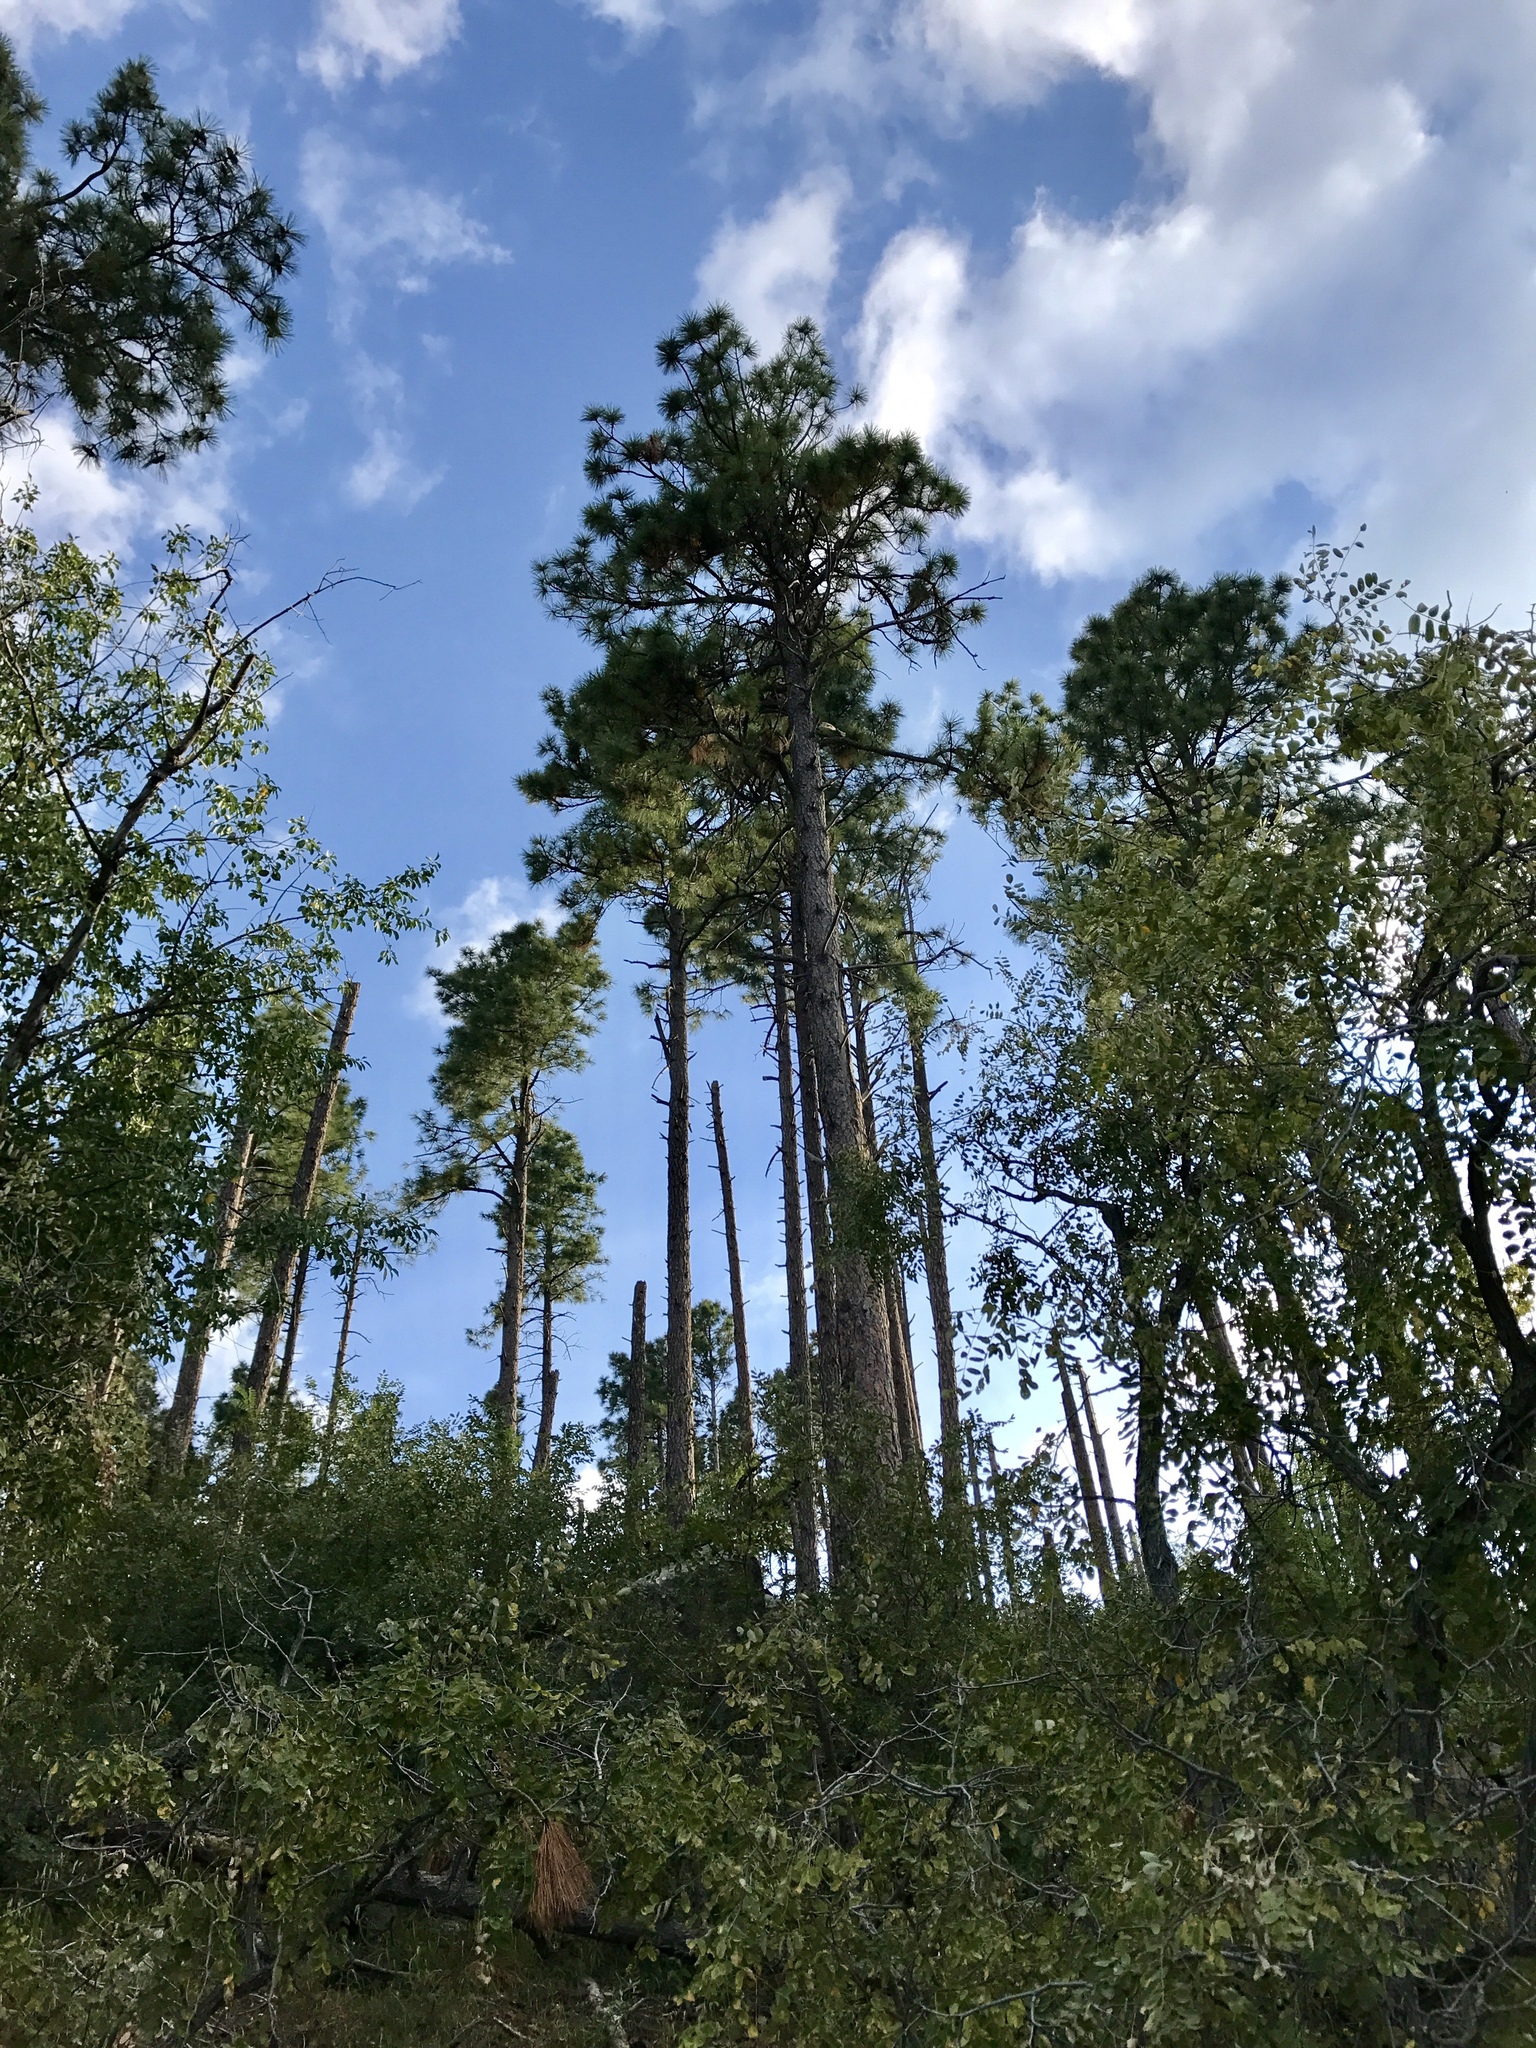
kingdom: Plantae
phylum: Tracheophyta
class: Pinopsida
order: Pinales
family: Pinaceae
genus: Pinus
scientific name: Pinus ponderosa
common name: Western yellow-pine
